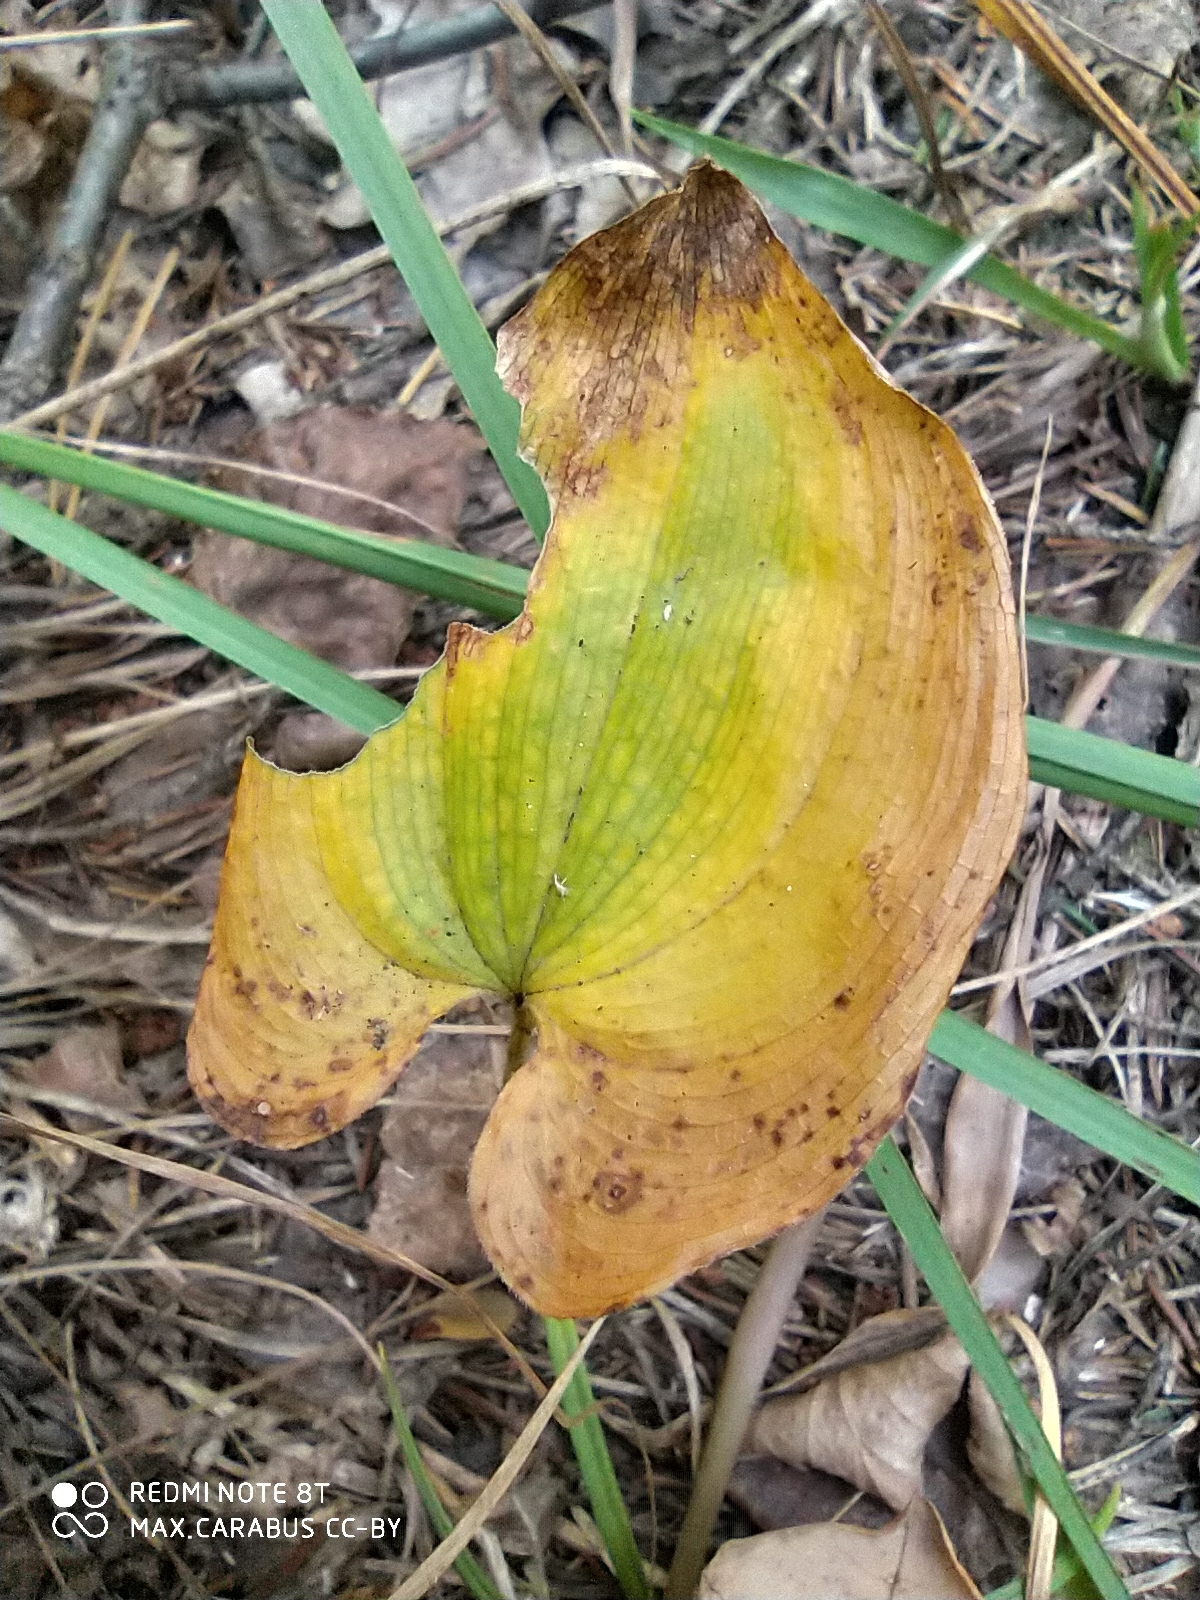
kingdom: Plantae
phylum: Tracheophyta
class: Liliopsida
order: Asparagales
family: Asparagaceae
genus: Maianthemum
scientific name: Maianthemum bifolium
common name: May lily
